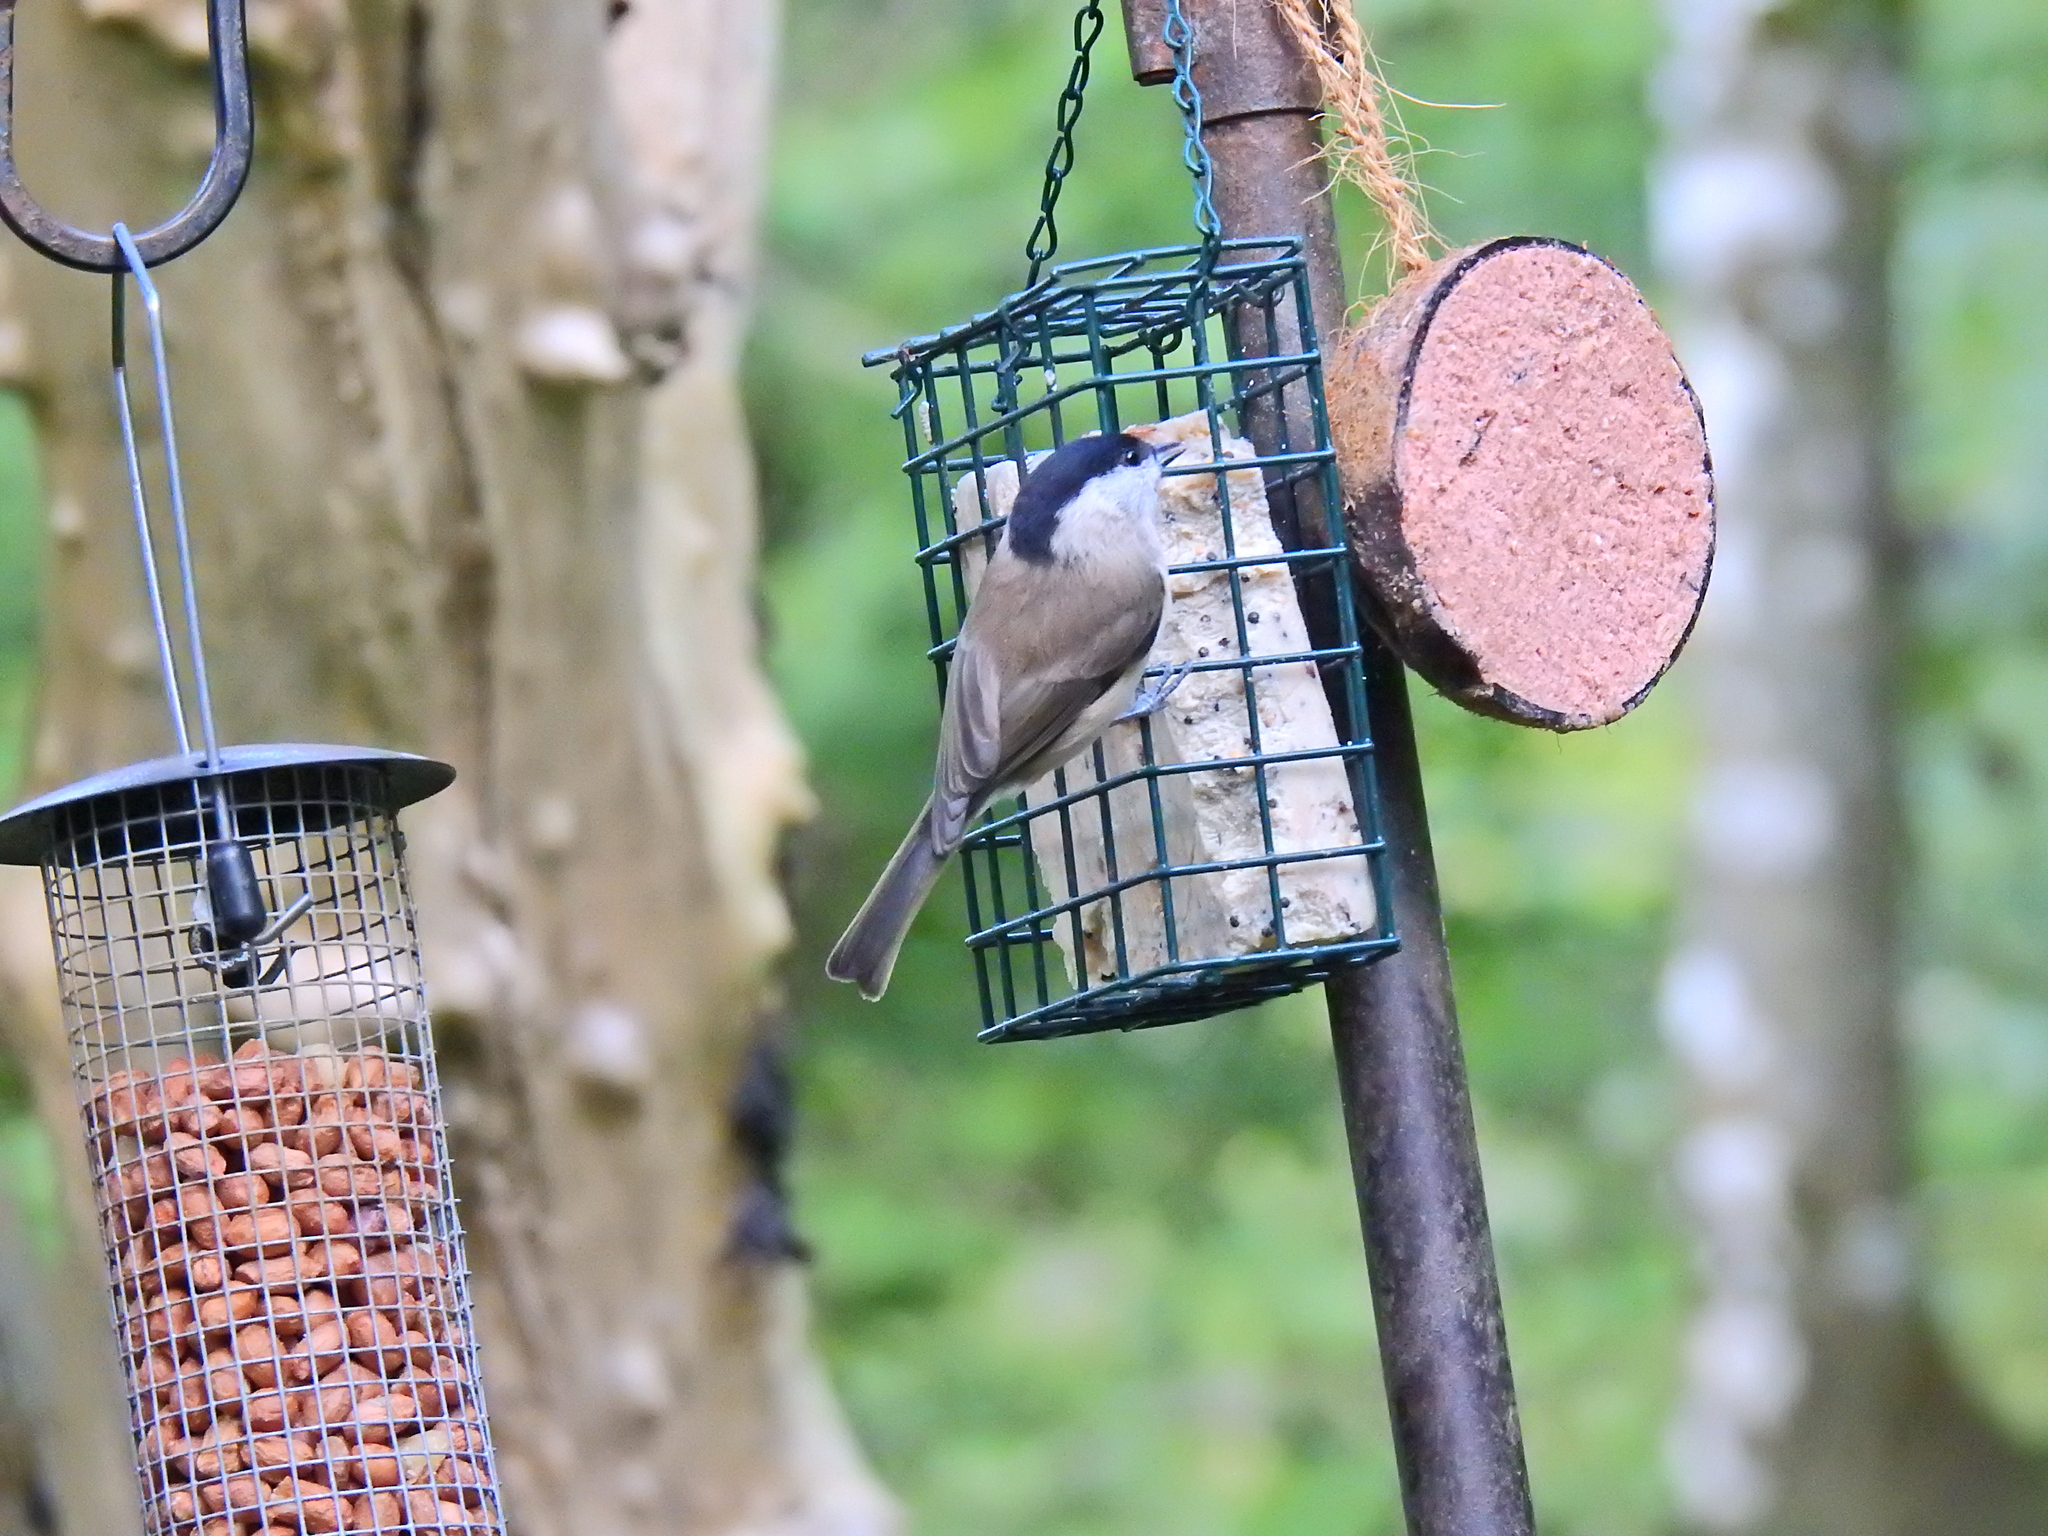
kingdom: Animalia
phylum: Chordata
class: Aves
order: Passeriformes
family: Paridae
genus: Poecile
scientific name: Poecile palustris
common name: Marsh tit
